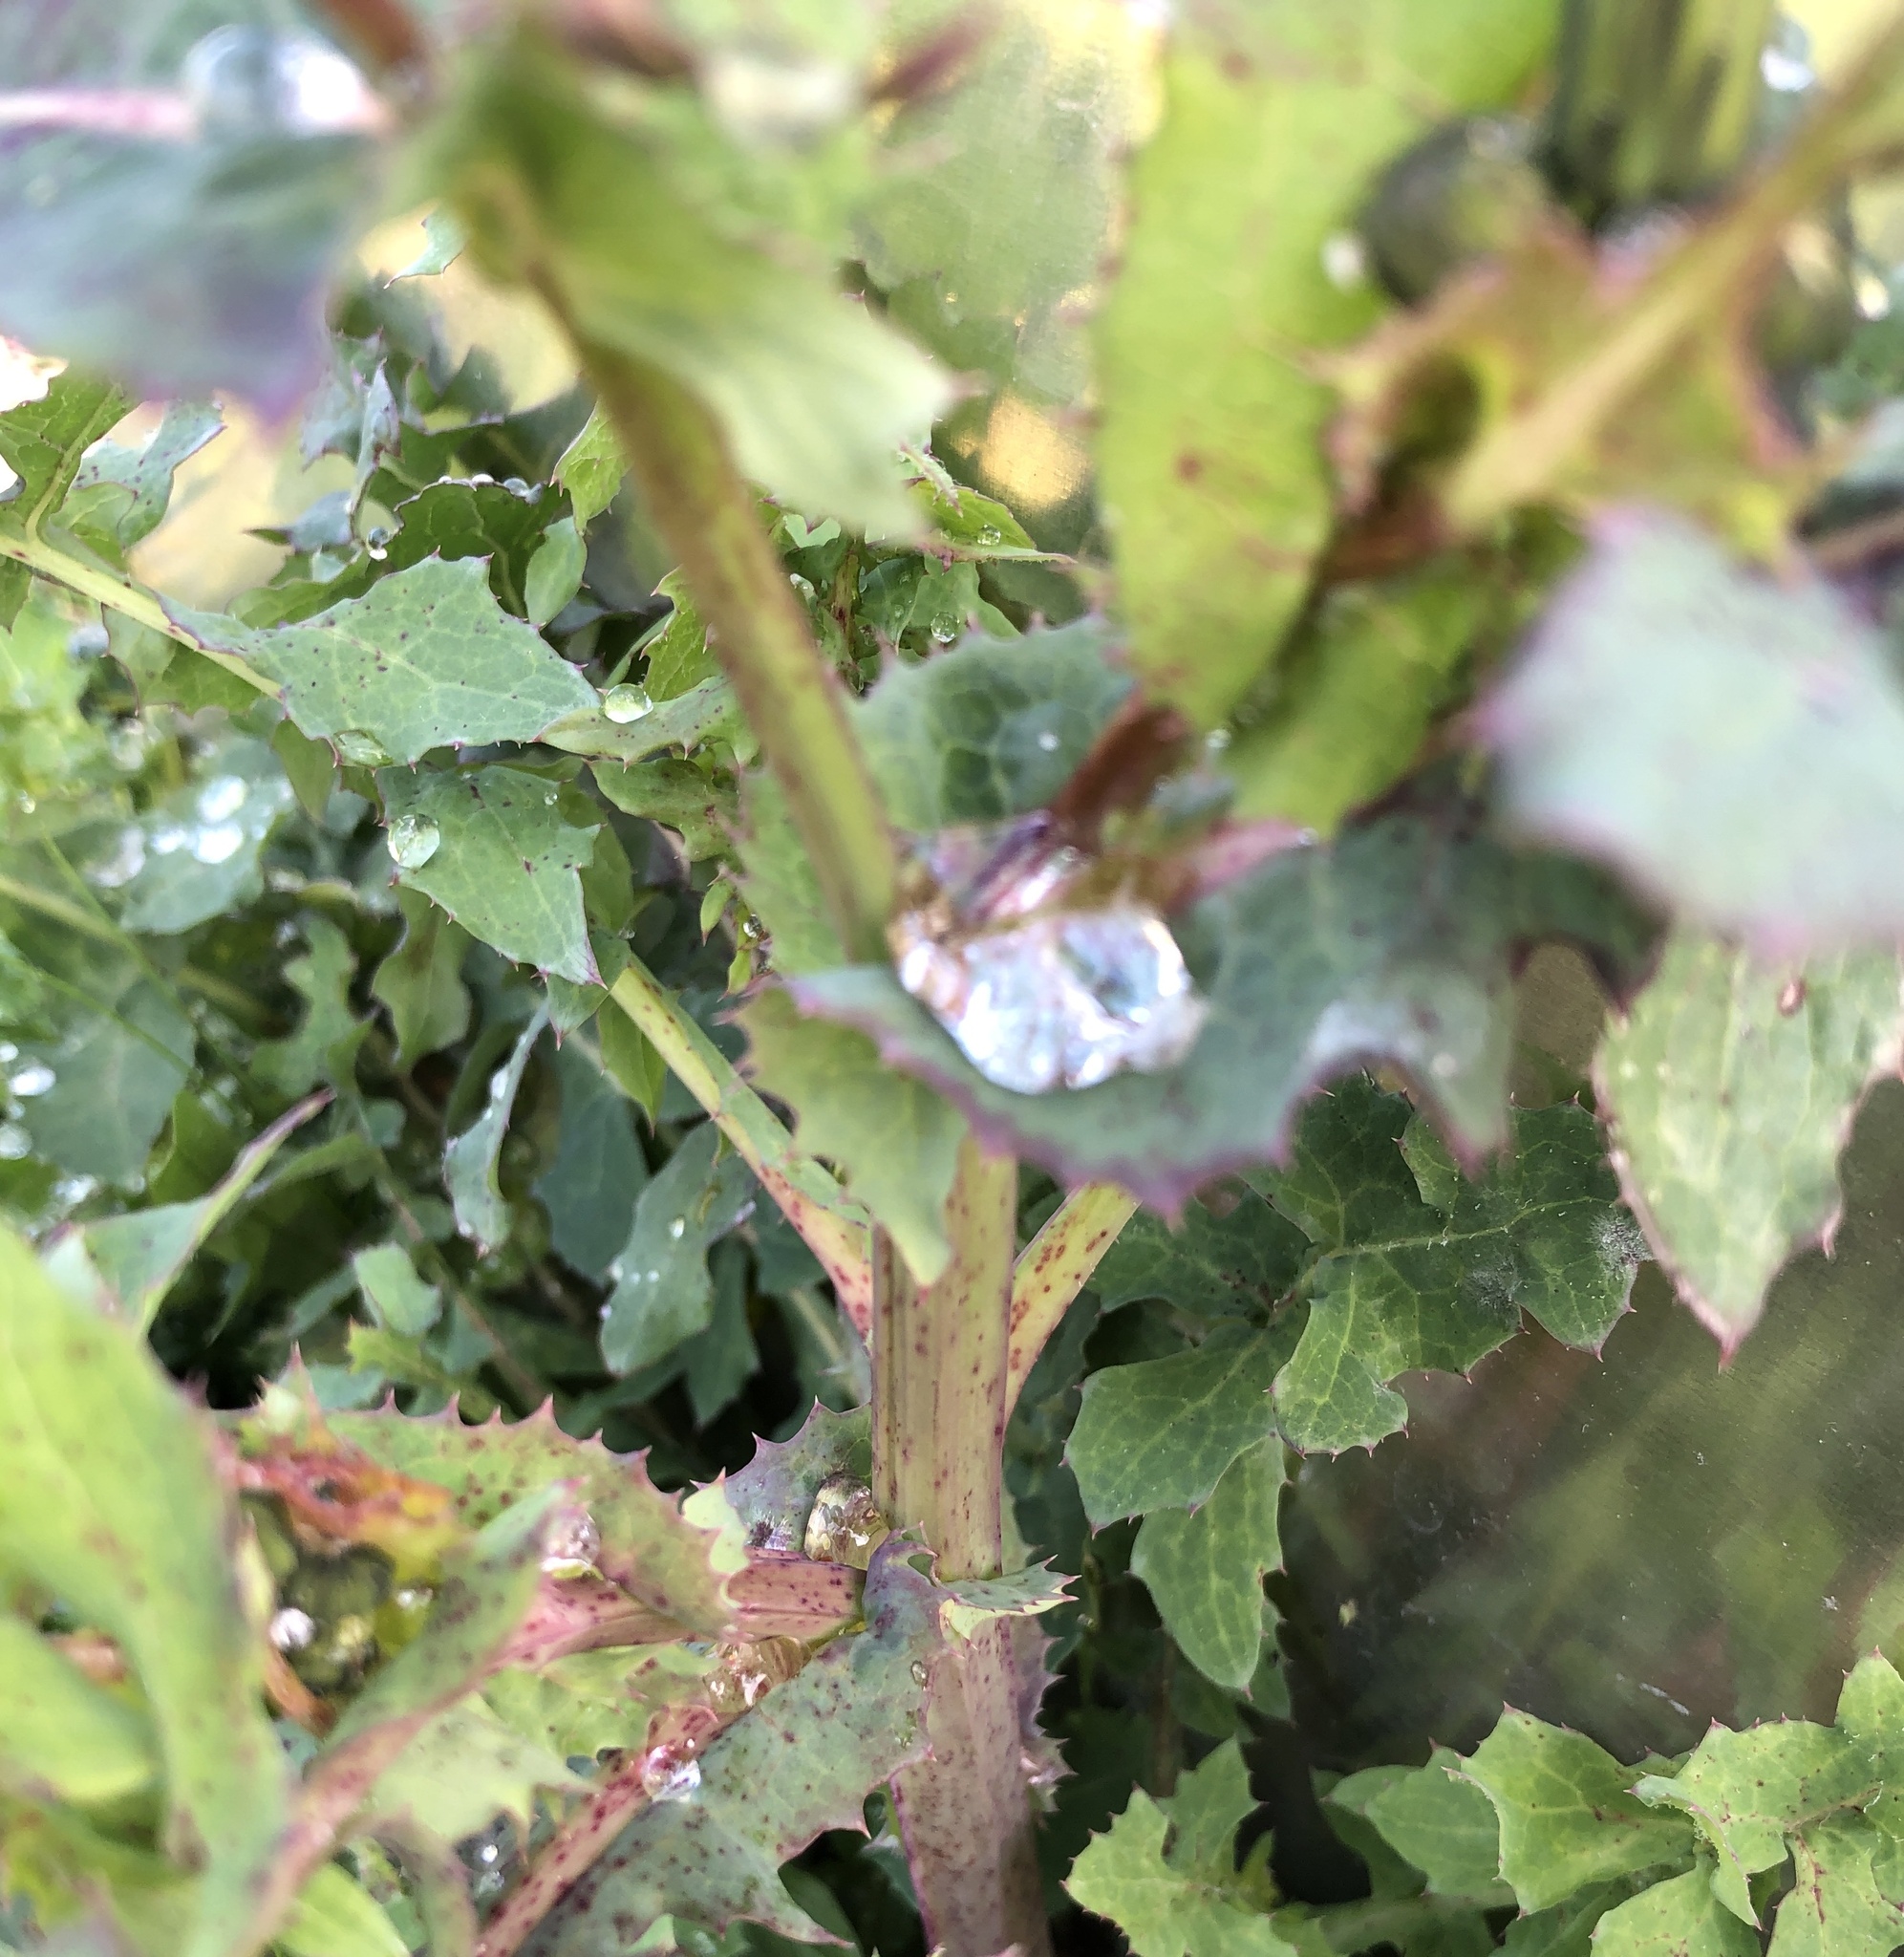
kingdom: Plantae
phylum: Tracheophyta
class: Magnoliopsida
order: Asterales
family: Asteraceae
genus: Sonchus
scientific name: Sonchus oleraceus
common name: Common sowthistle
